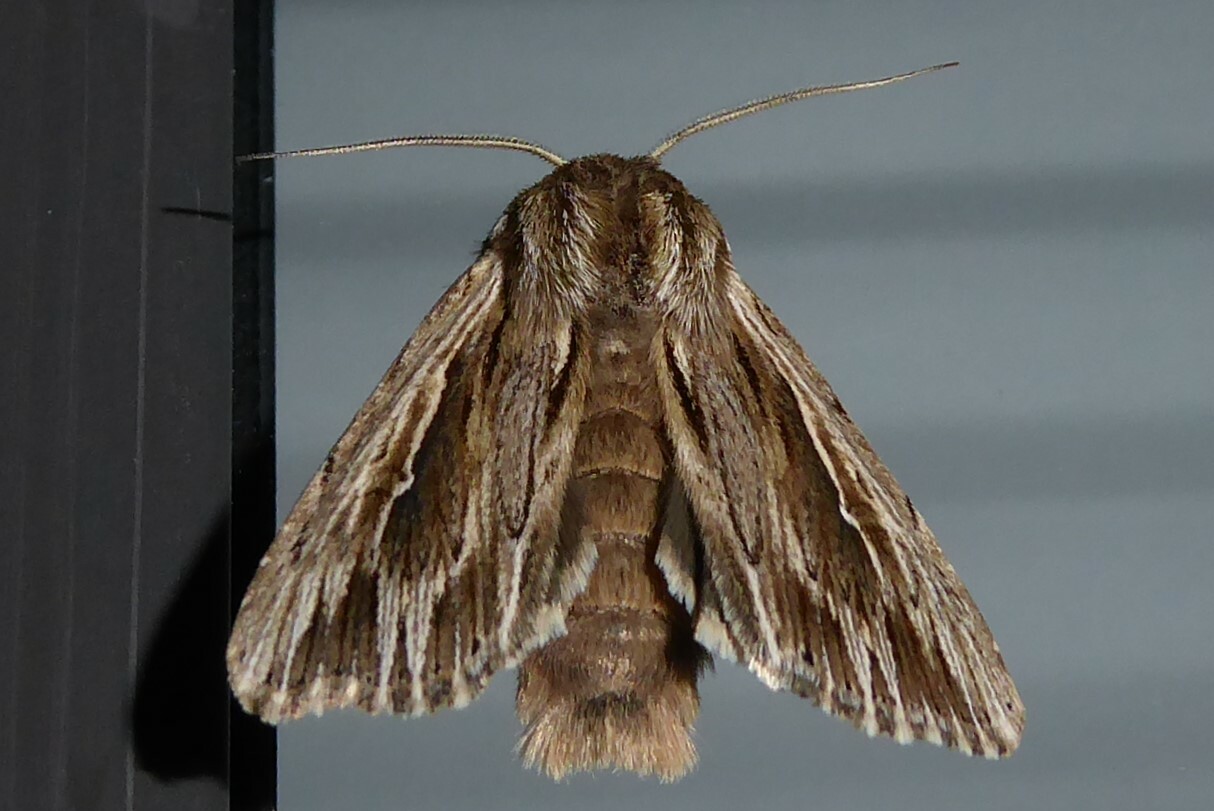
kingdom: Animalia
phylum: Arthropoda
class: Insecta
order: Lepidoptera
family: Noctuidae
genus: Persectania
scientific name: Persectania aversa
